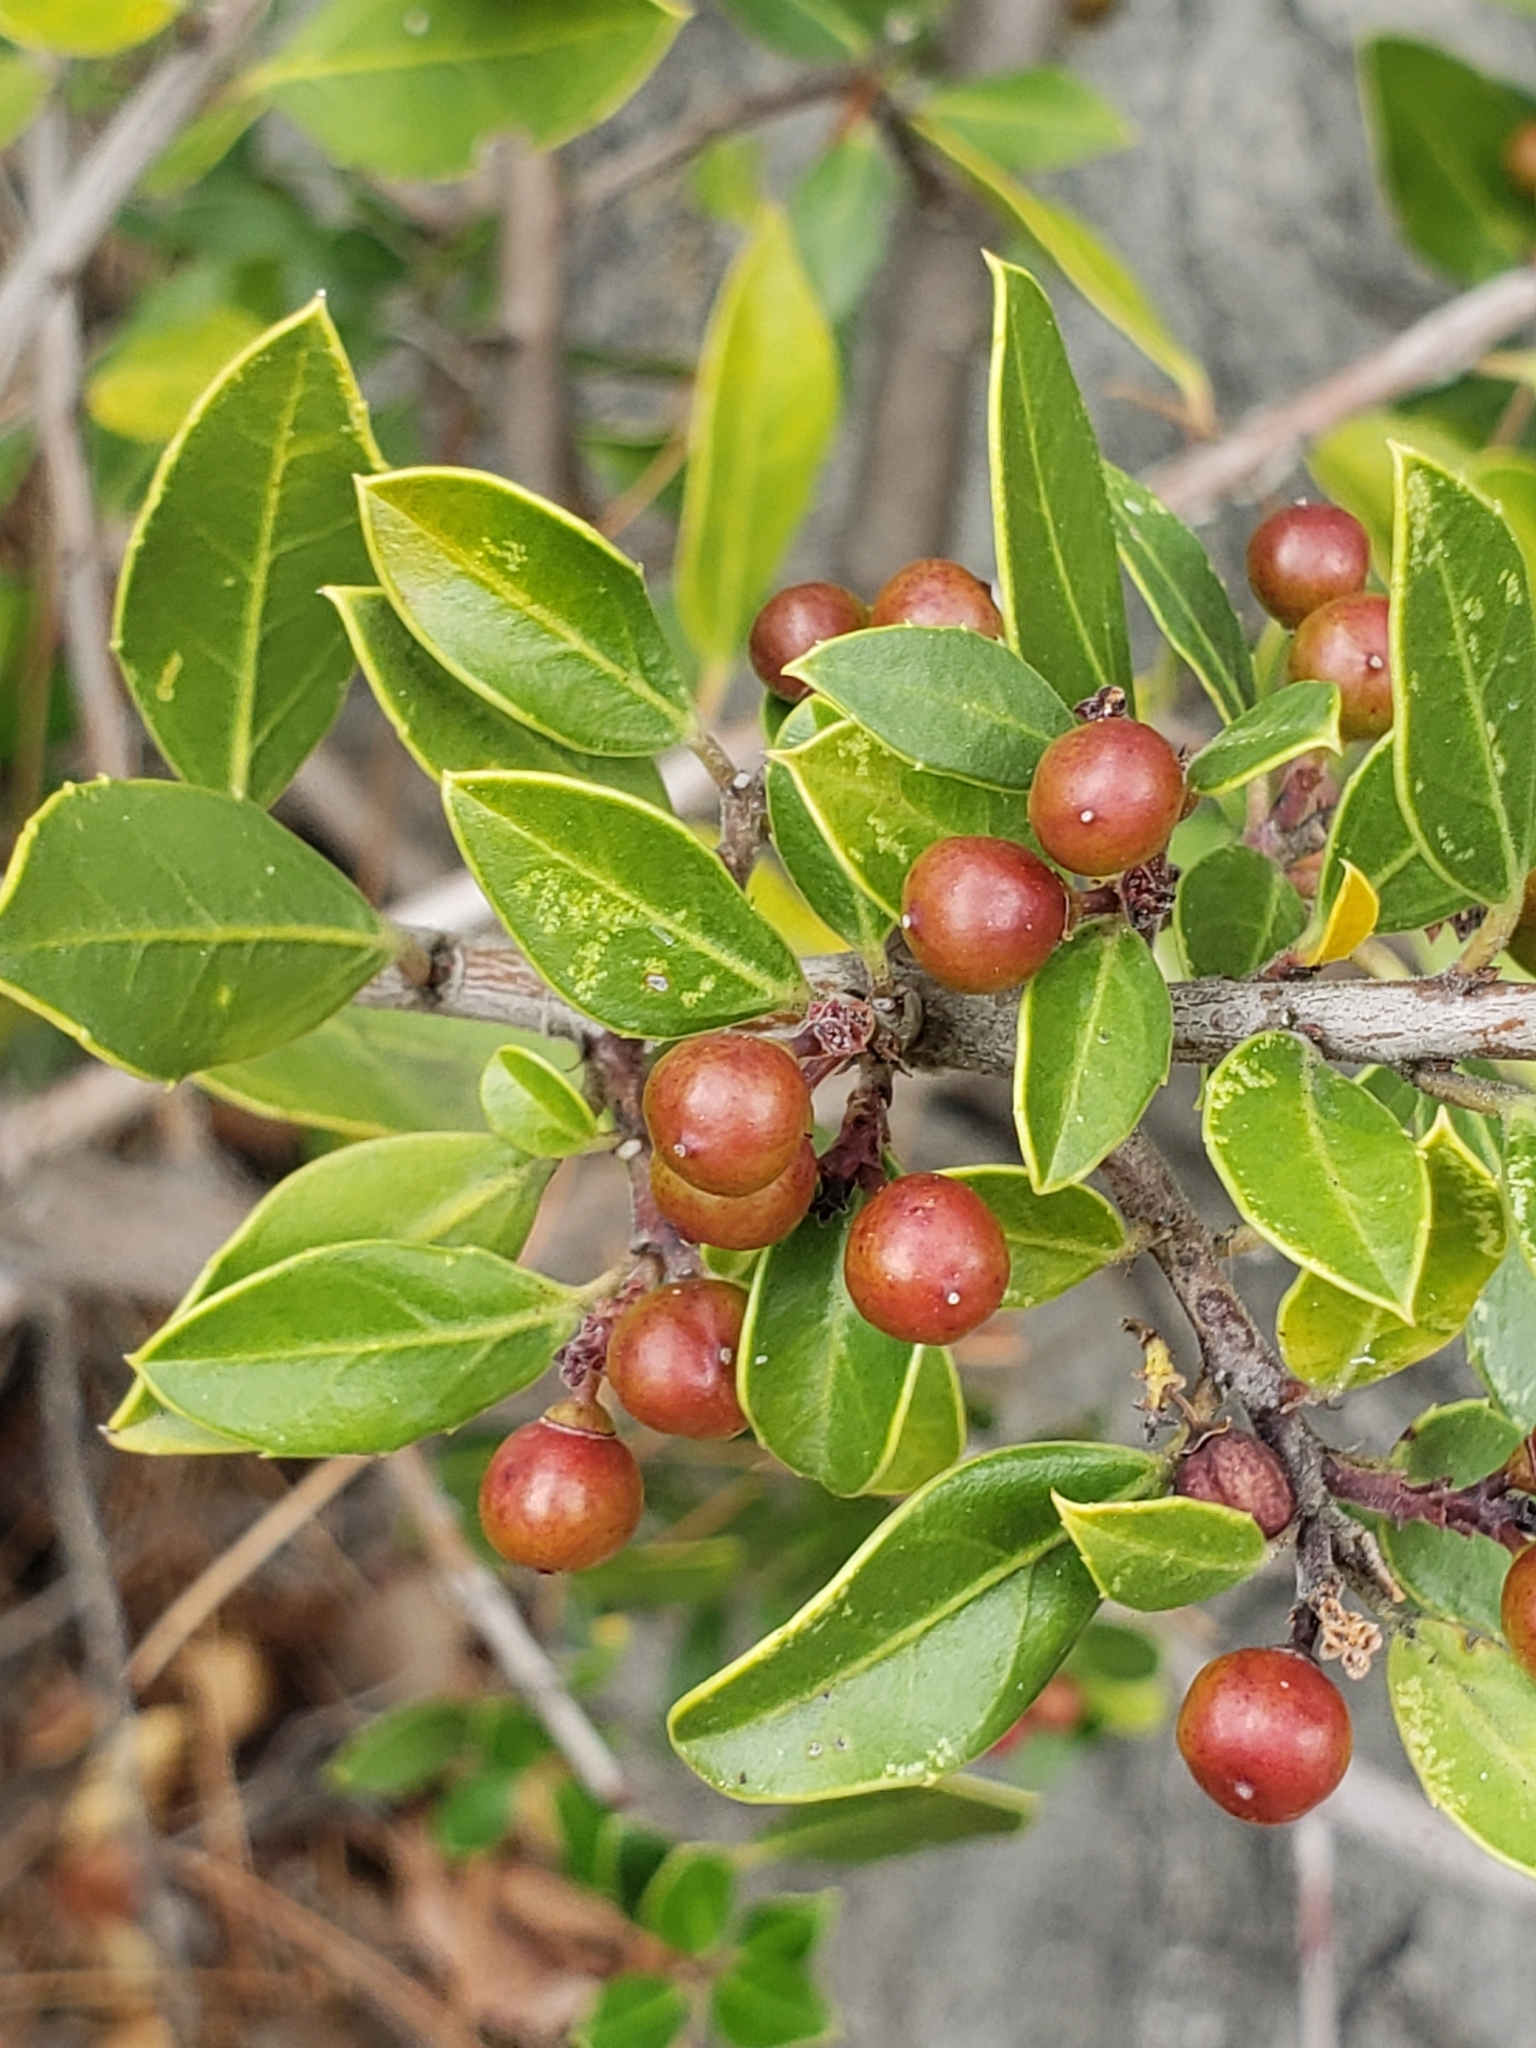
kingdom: Plantae
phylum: Tracheophyta
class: Magnoliopsida
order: Rosales
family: Rhamnaceae
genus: Rhamnus
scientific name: Rhamnus alaternus
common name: Mediterranean buckthorn
